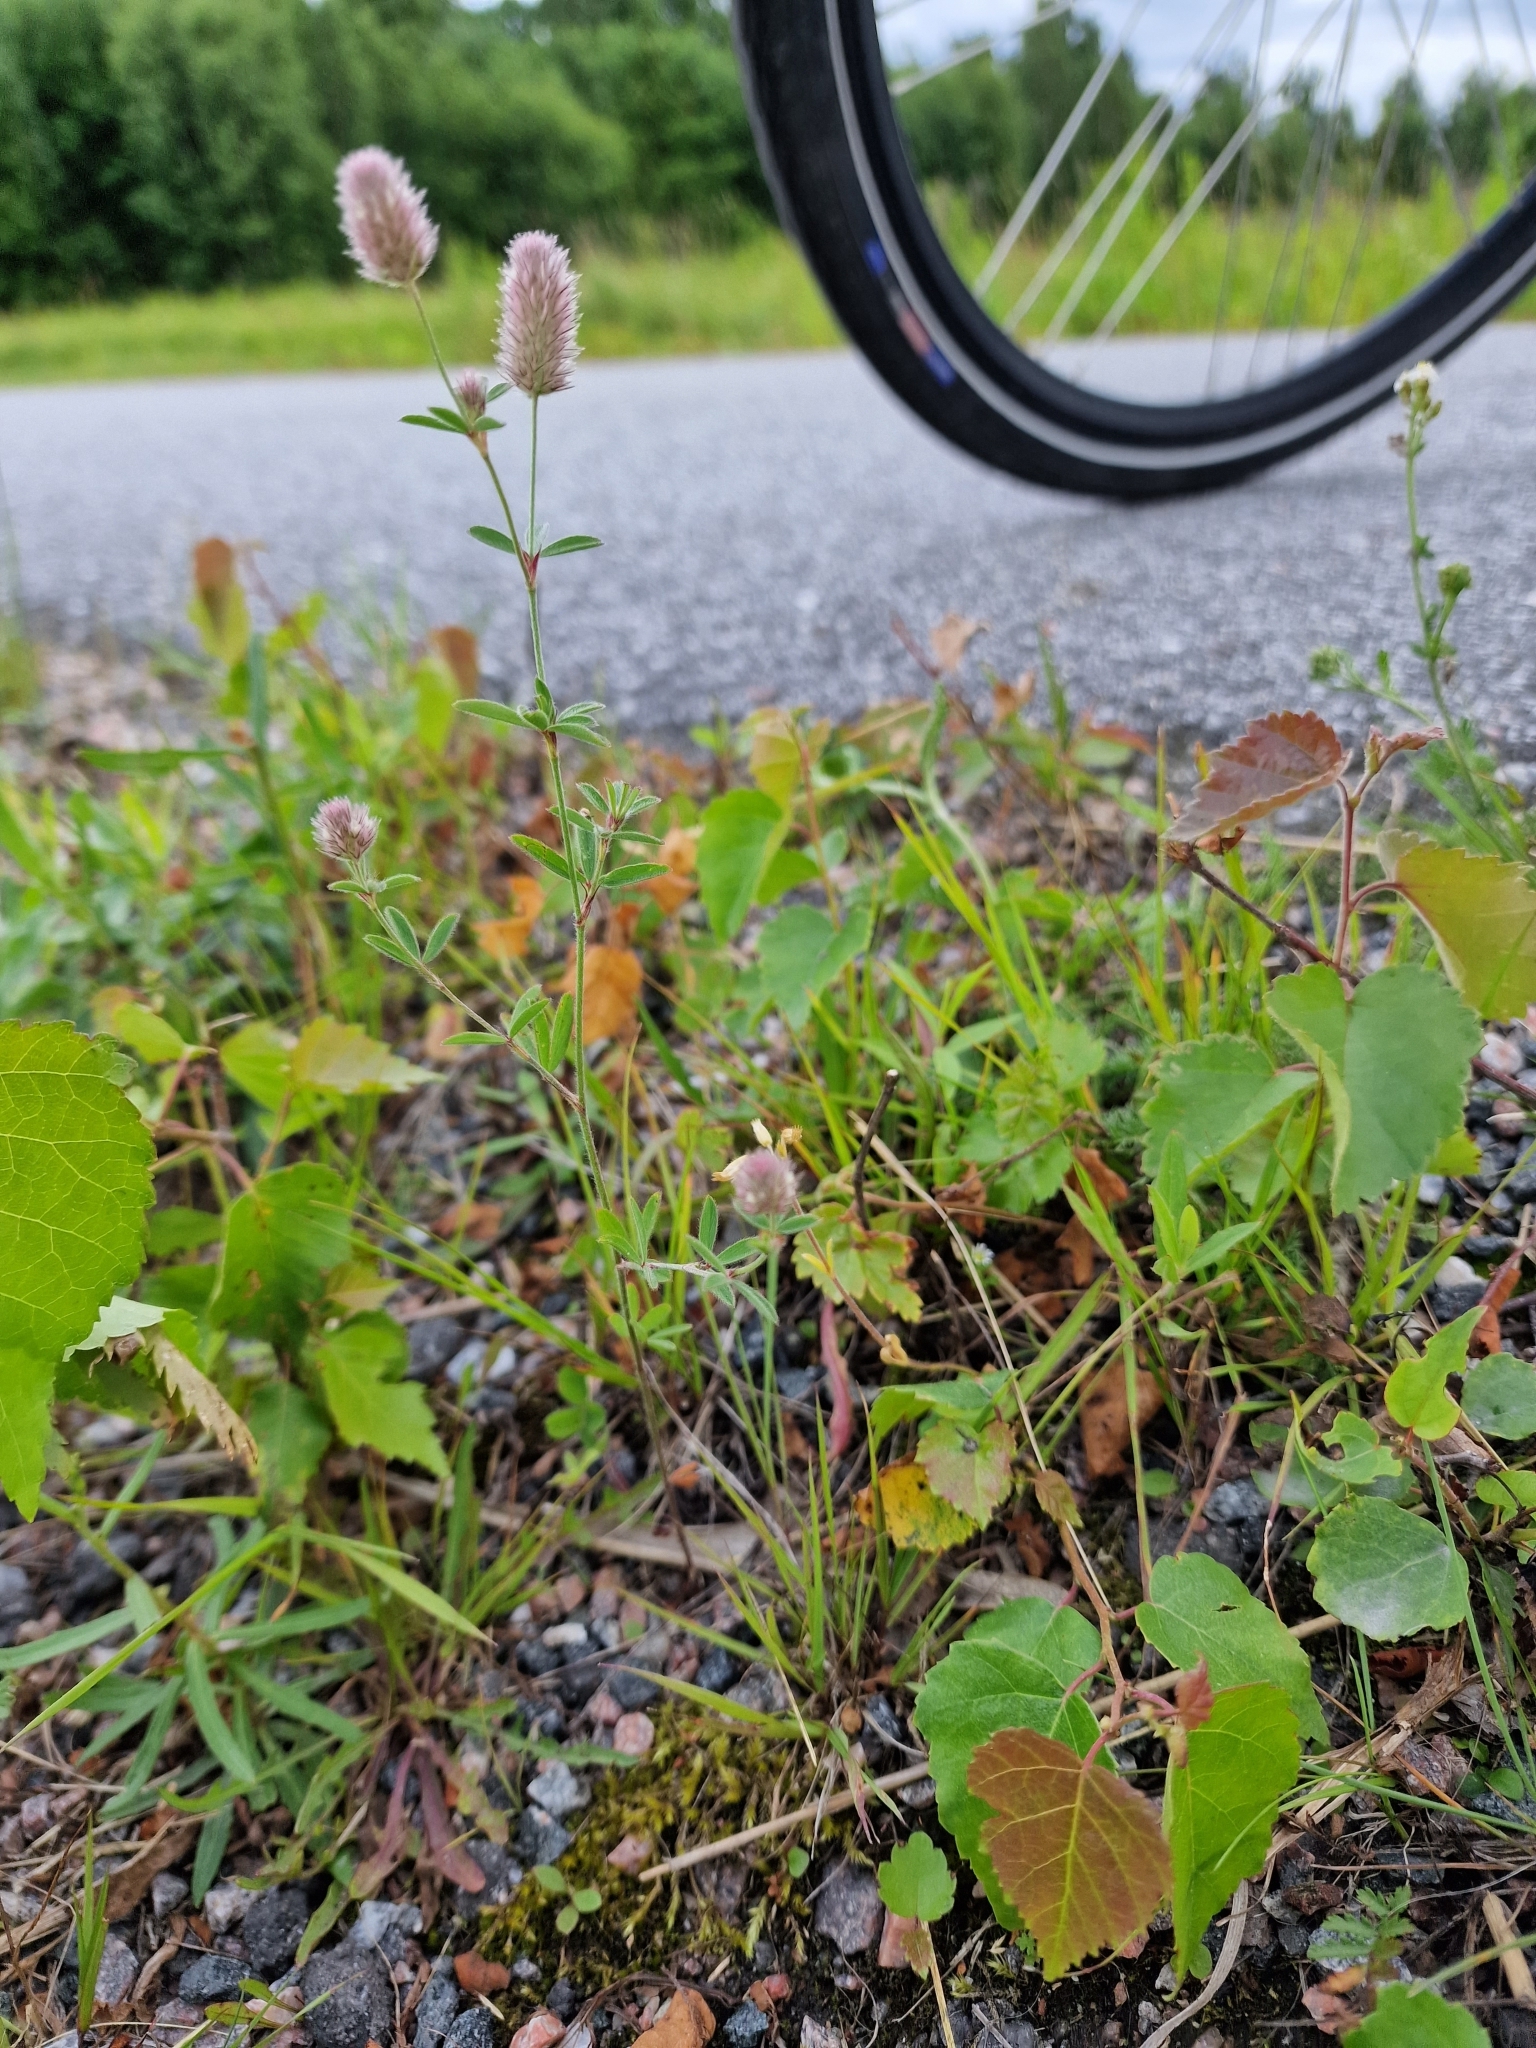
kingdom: Plantae
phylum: Tracheophyta
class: Magnoliopsida
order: Fabales
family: Fabaceae
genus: Trifolium
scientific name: Trifolium arvense
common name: Hare's-foot clover
